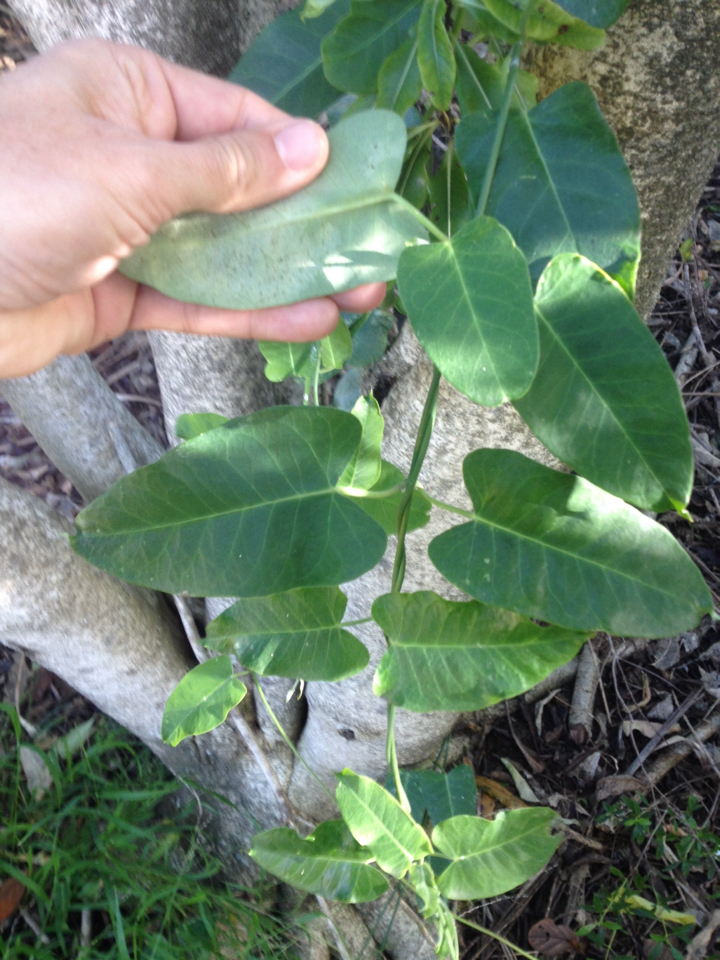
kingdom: Plantae
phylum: Tracheophyta
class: Magnoliopsida
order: Gentianales
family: Apocynaceae
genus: Araujia
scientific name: Araujia sericifera
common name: White bladderflower
